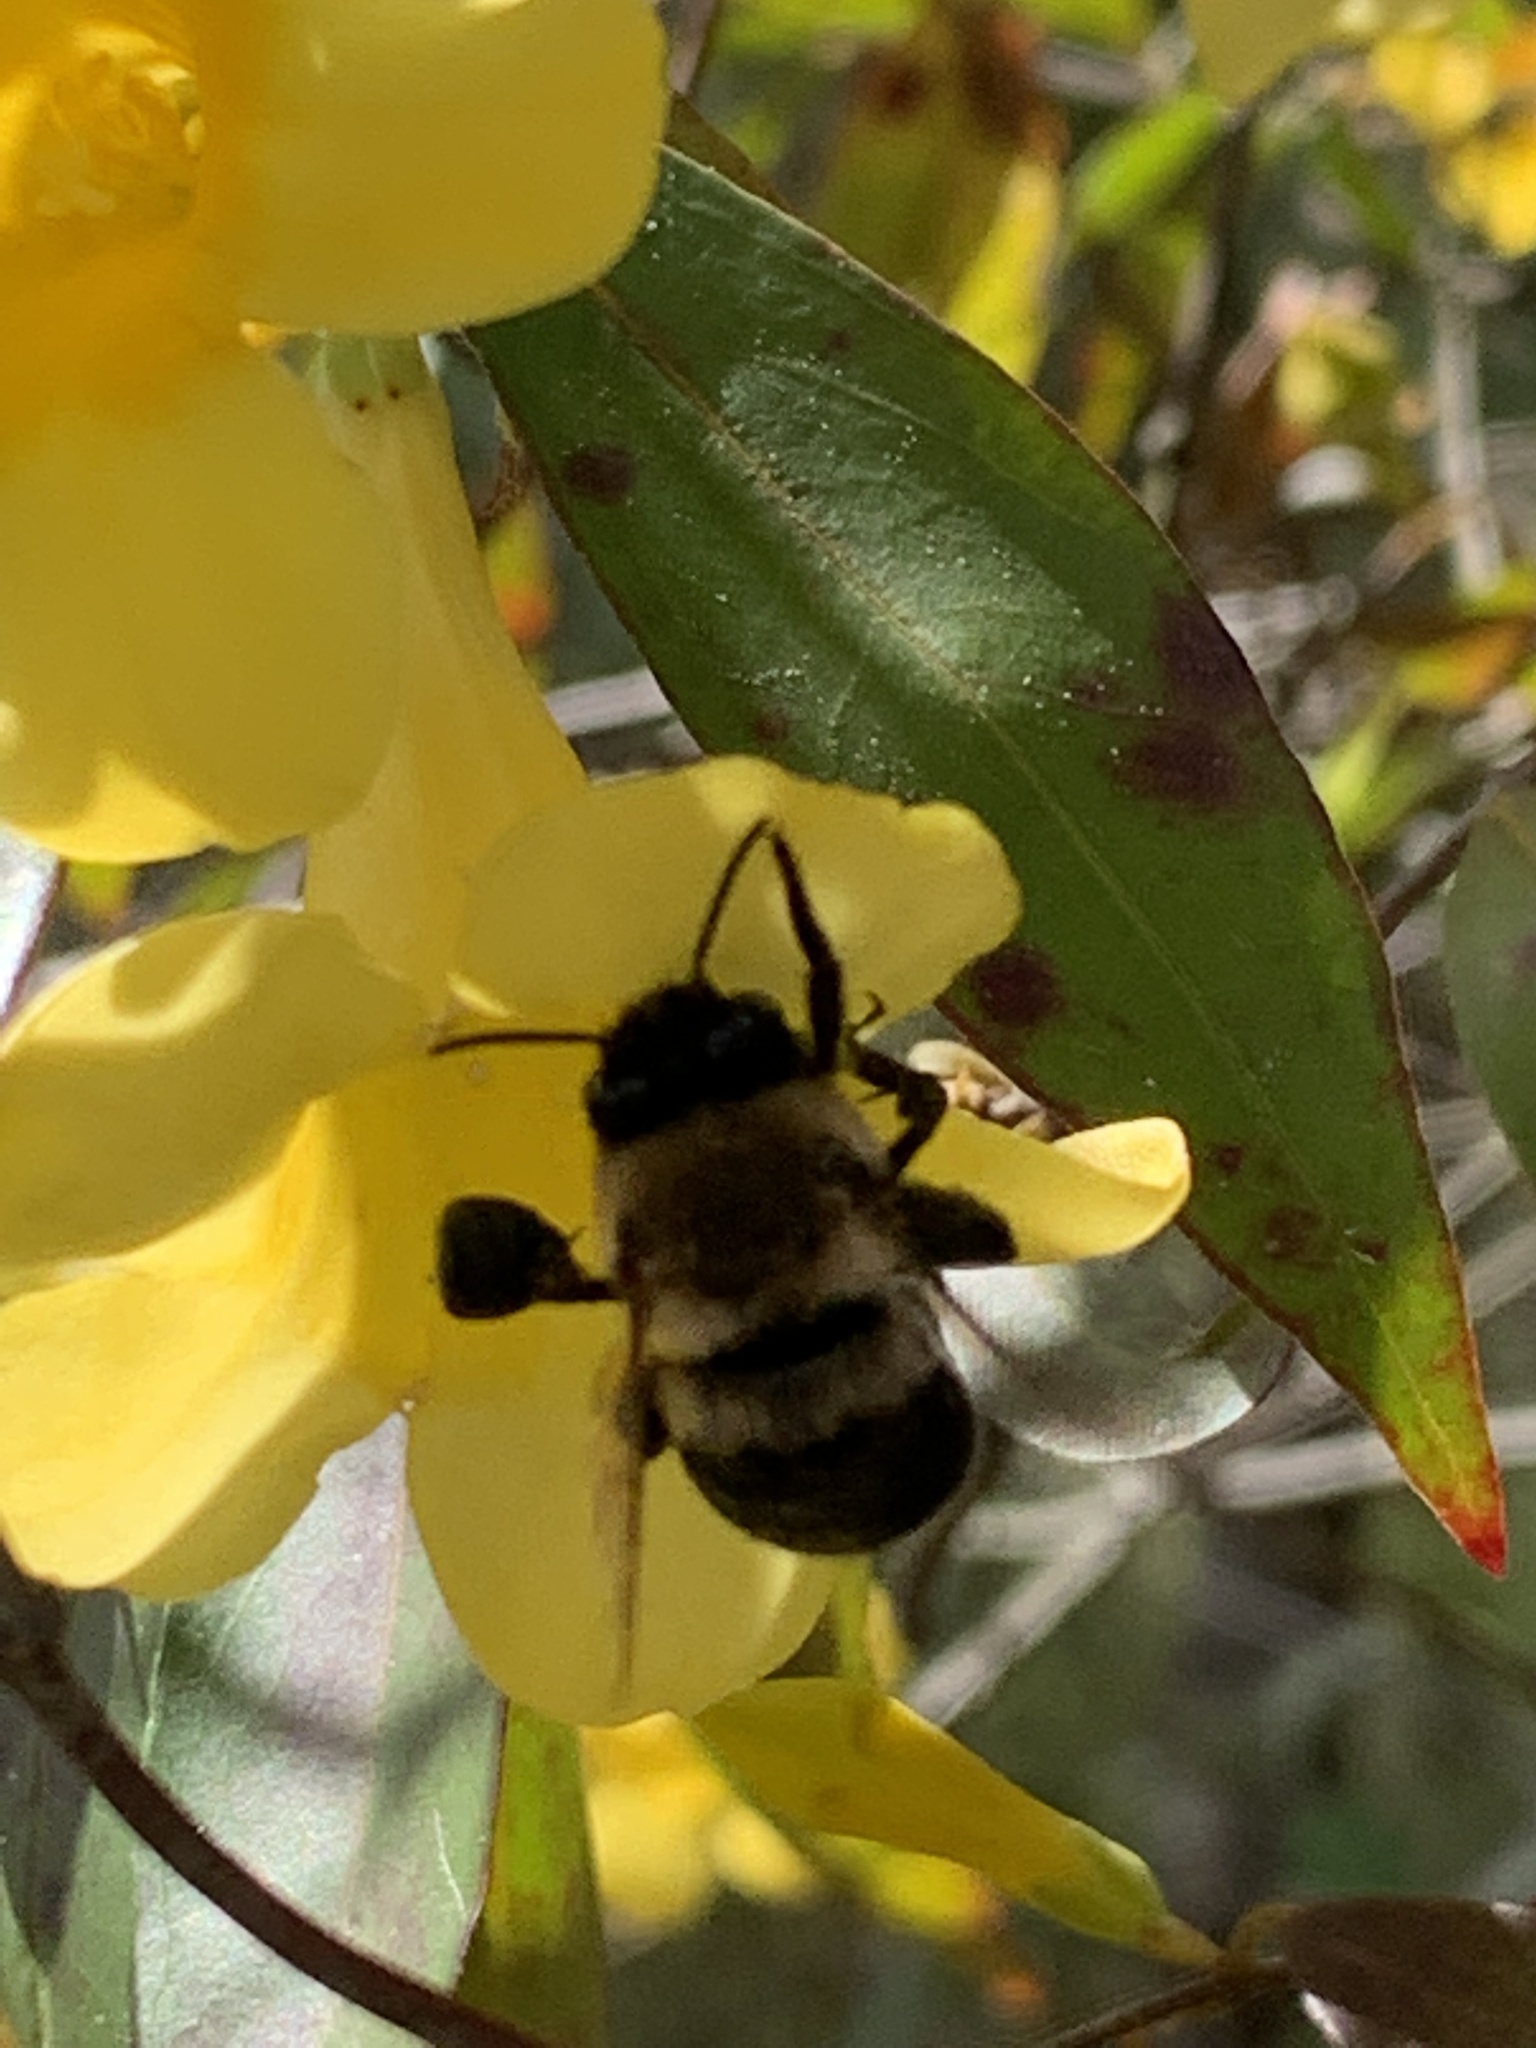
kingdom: Animalia
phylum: Arthropoda
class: Insecta
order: Hymenoptera
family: Apidae
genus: Habropoda
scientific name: Habropoda laboriosa
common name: Southeastern blueberry bee
